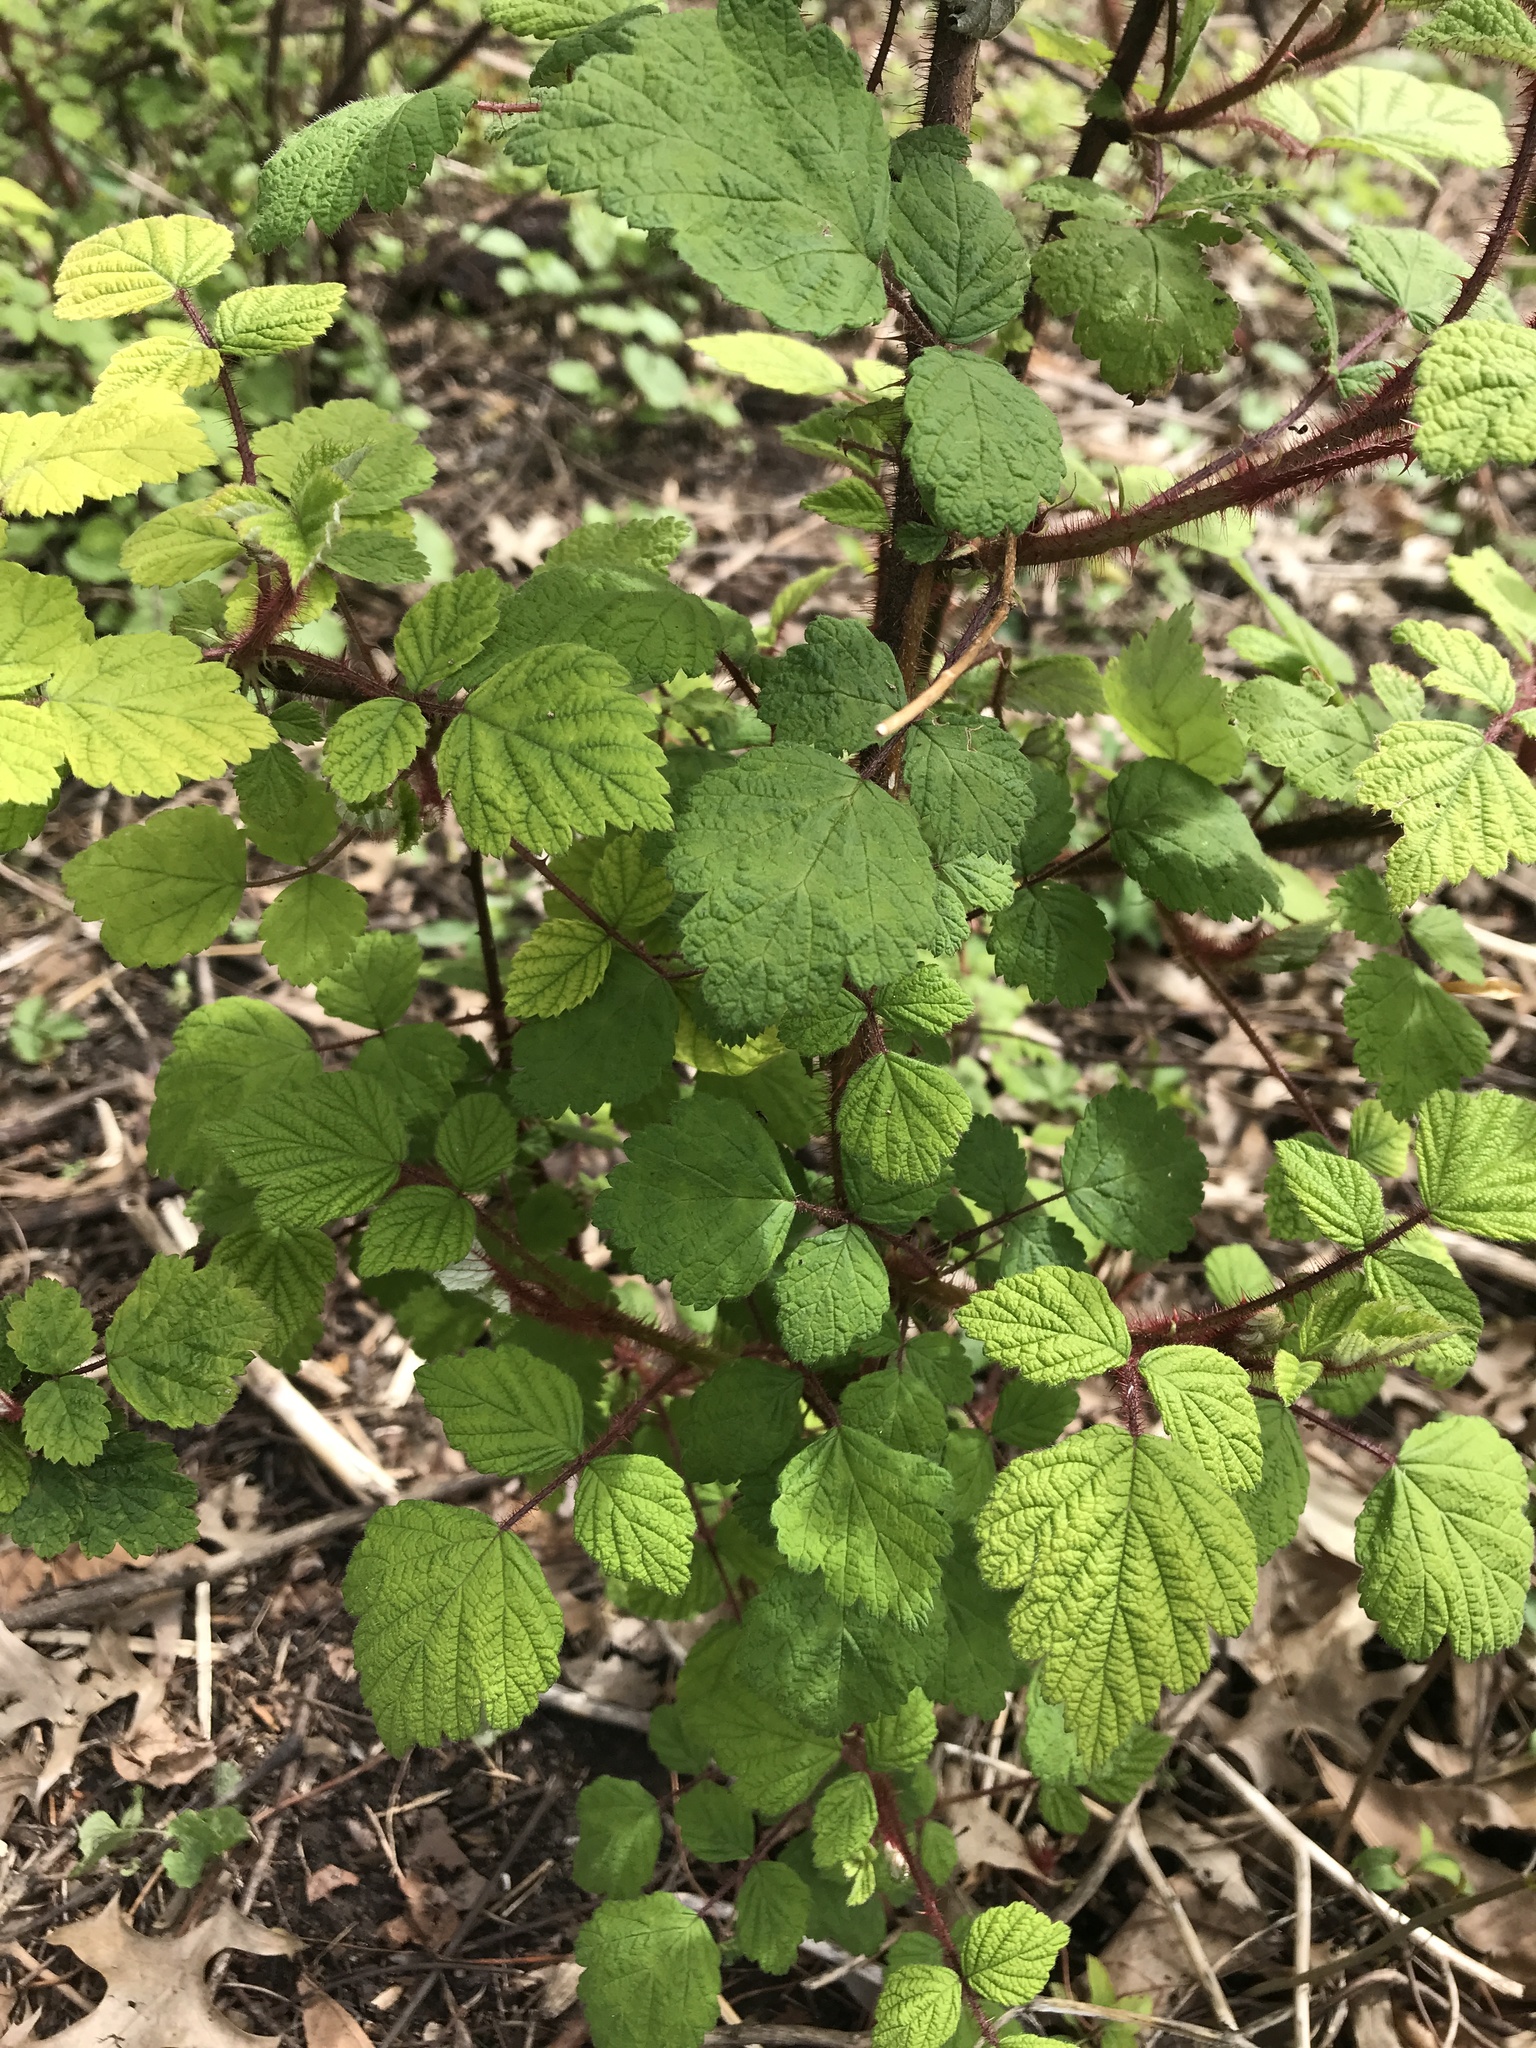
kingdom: Plantae
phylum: Tracheophyta
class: Magnoliopsida
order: Rosales
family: Rosaceae
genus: Rubus
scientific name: Rubus phoenicolasius
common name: Japanese wineberry
